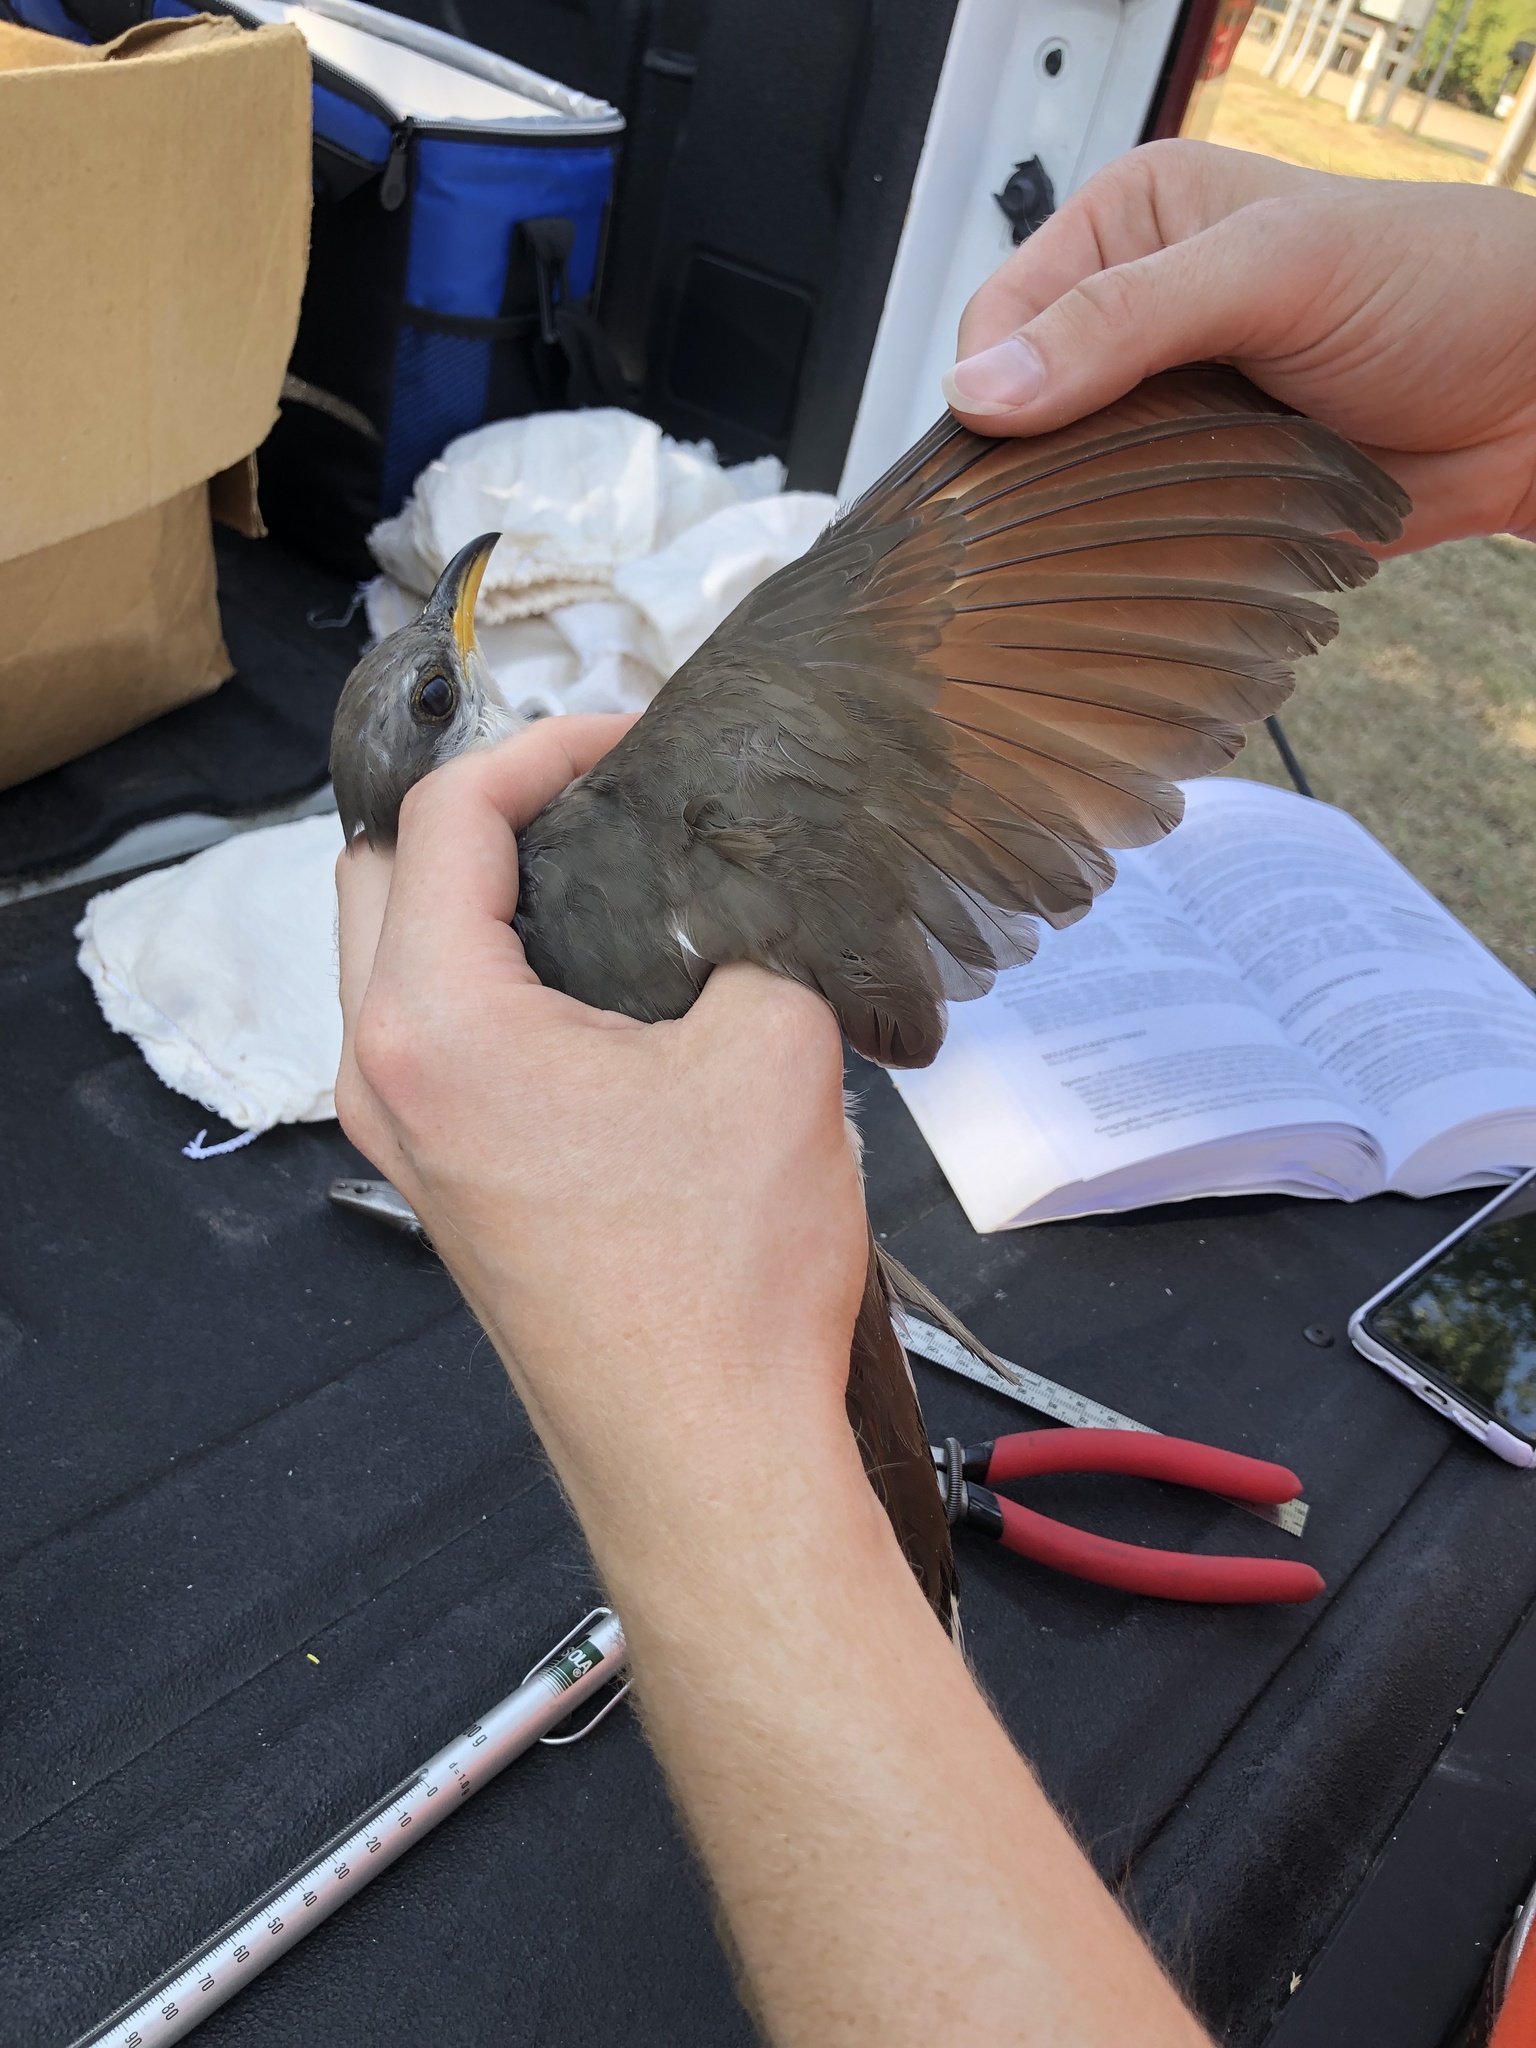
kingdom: Animalia
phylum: Chordata
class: Aves
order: Cuculiformes
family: Cuculidae
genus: Coccyzus
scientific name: Coccyzus americanus
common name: Yellow-billed cuckoo
